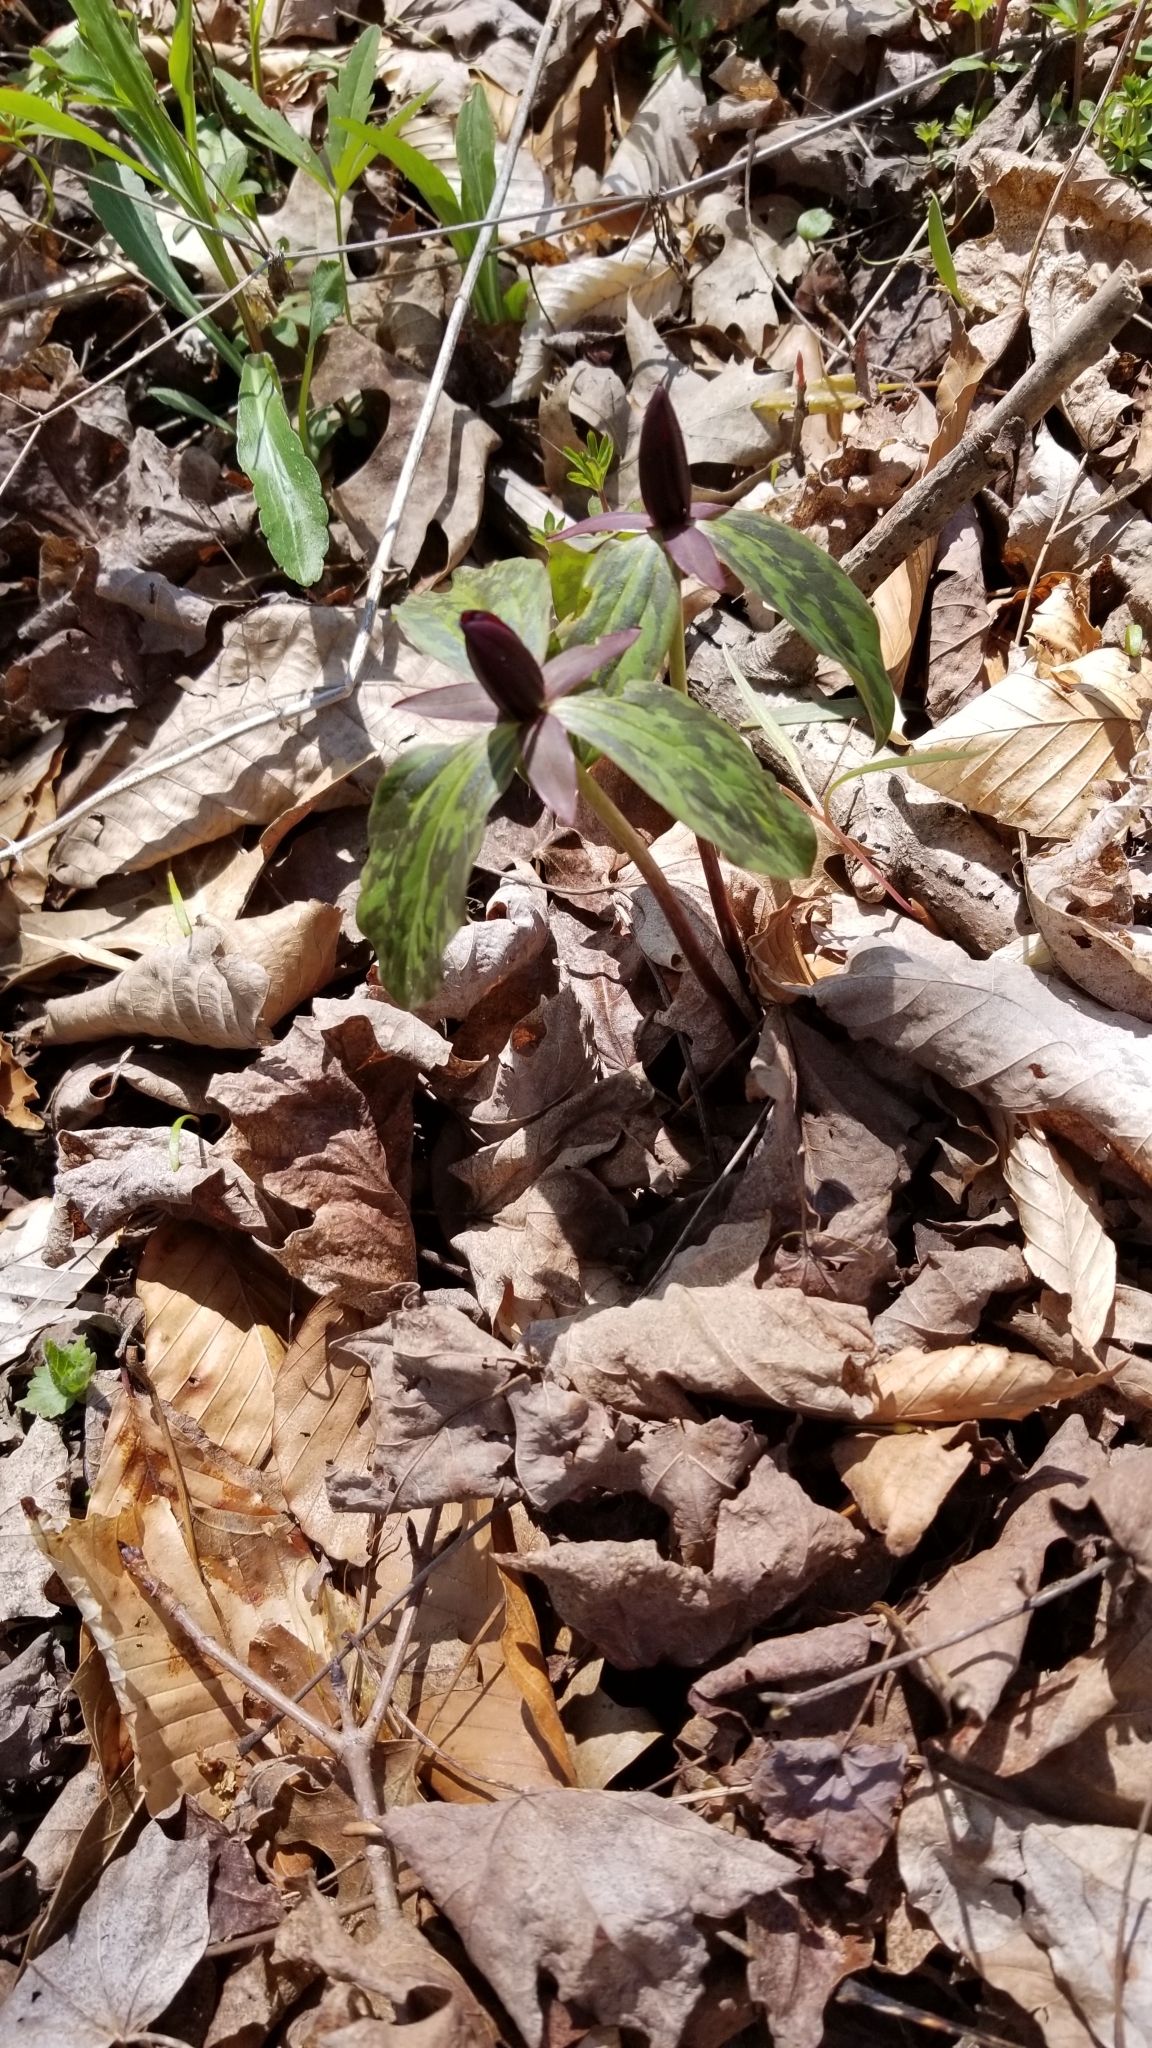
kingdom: Plantae
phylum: Tracheophyta
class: Liliopsida
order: Liliales
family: Melanthiaceae
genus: Trillium
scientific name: Trillium sessile
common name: Sessile trillium
